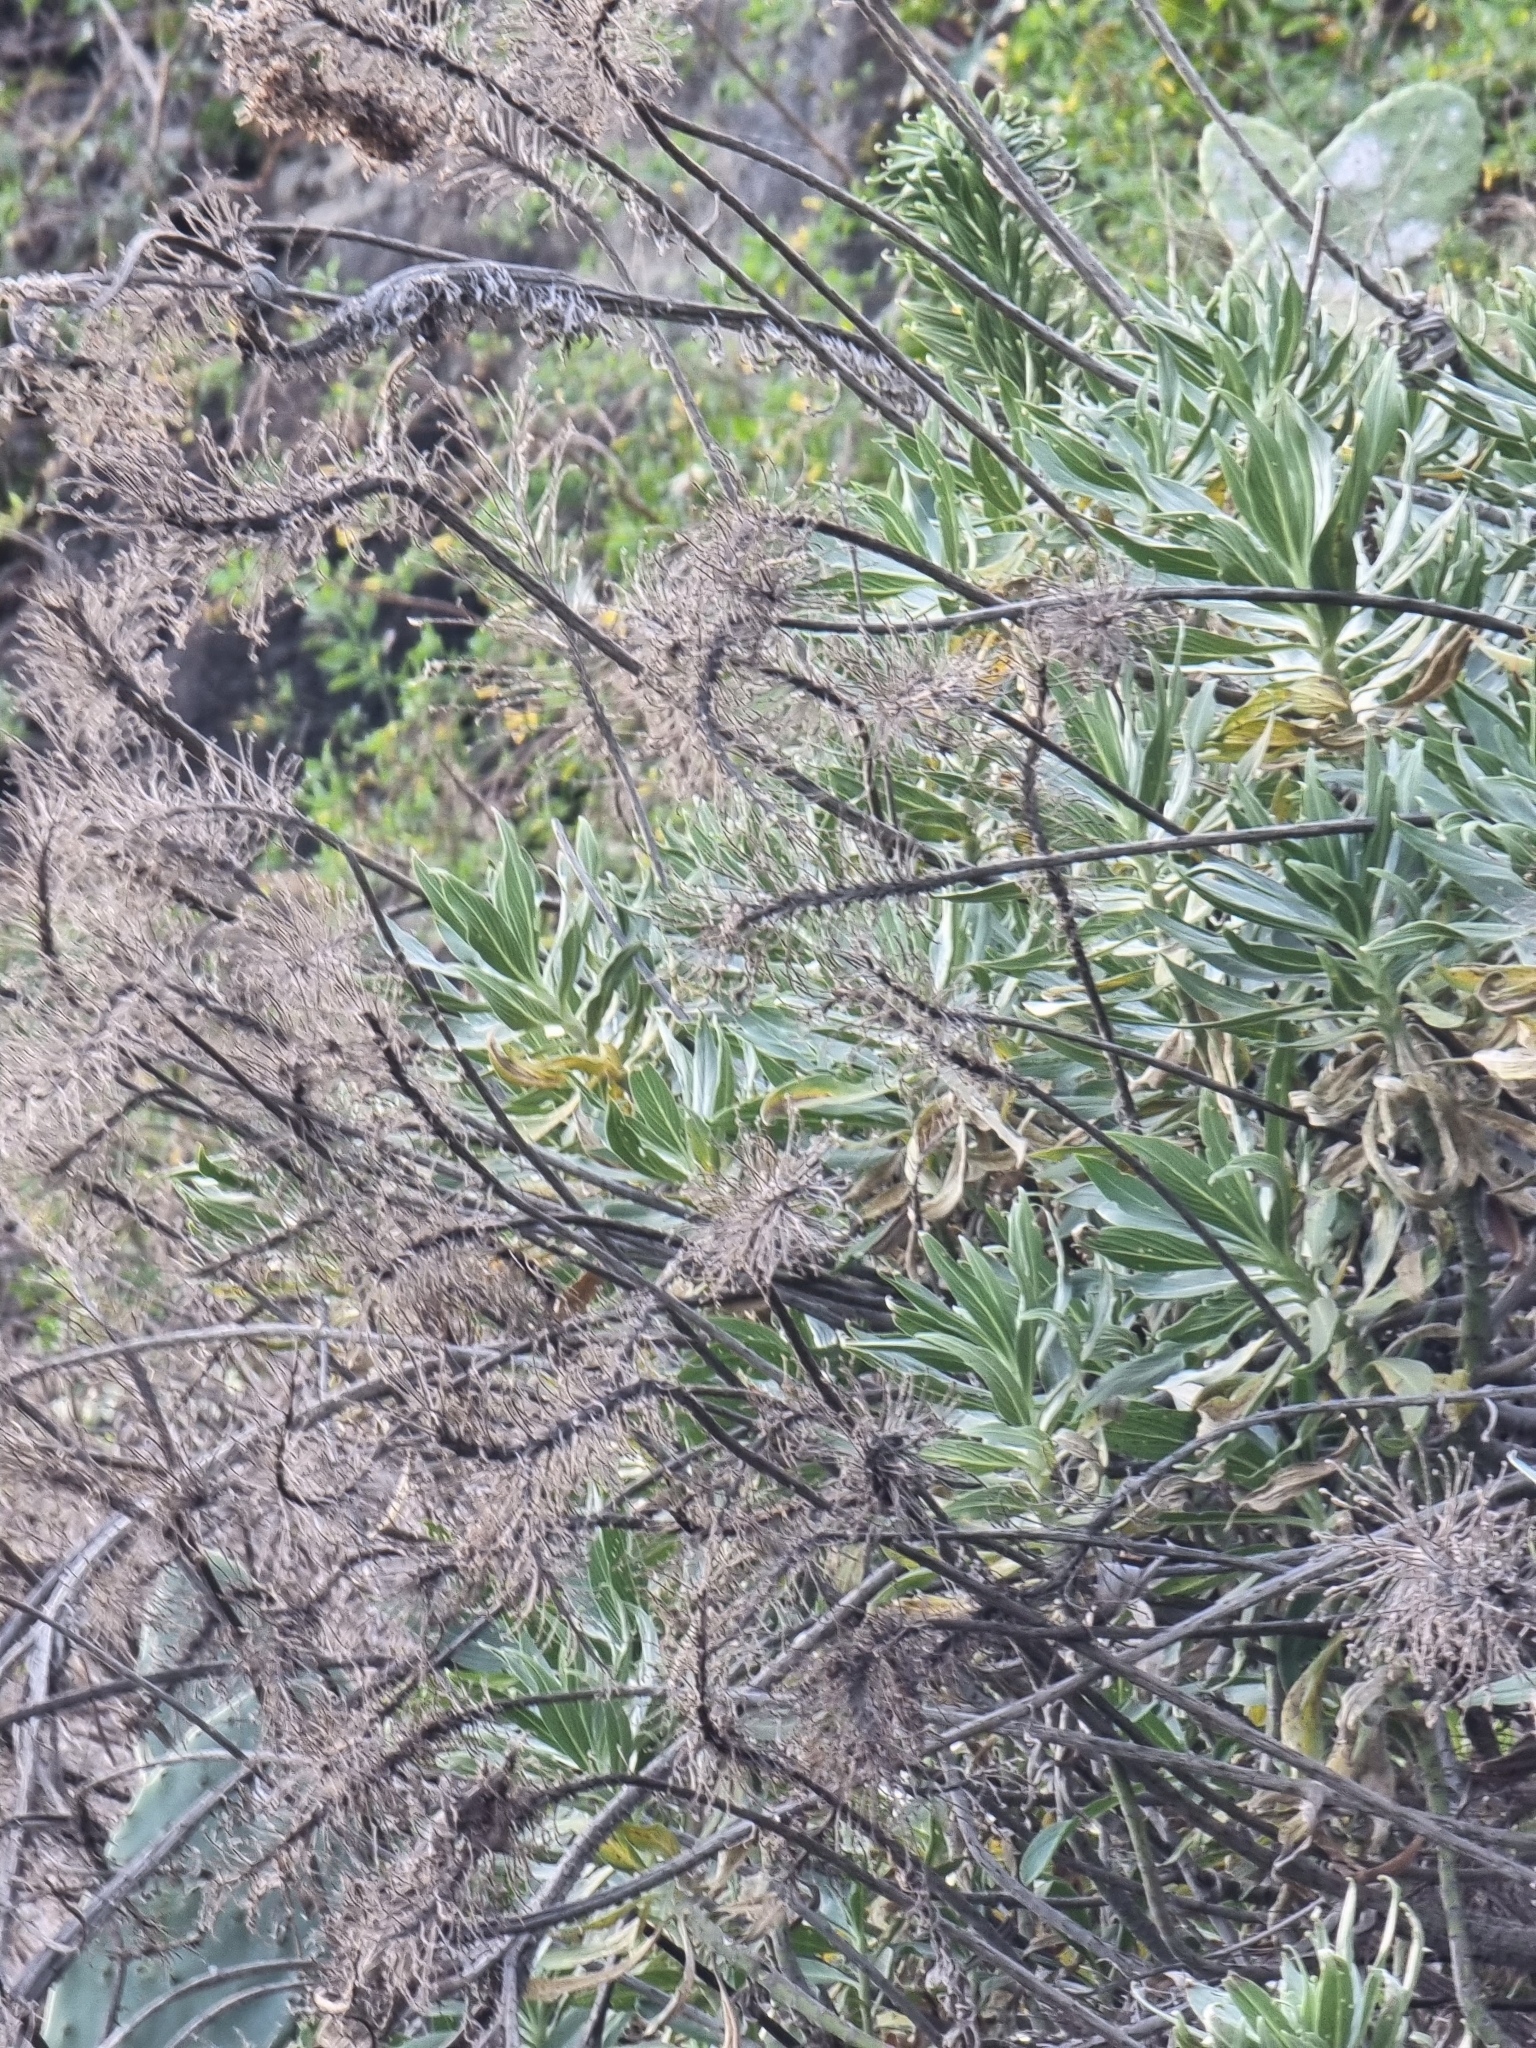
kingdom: Plantae
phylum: Tracheophyta
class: Magnoliopsida
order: Boraginales
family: Boraginaceae
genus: Echium
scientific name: Echium nervosum
